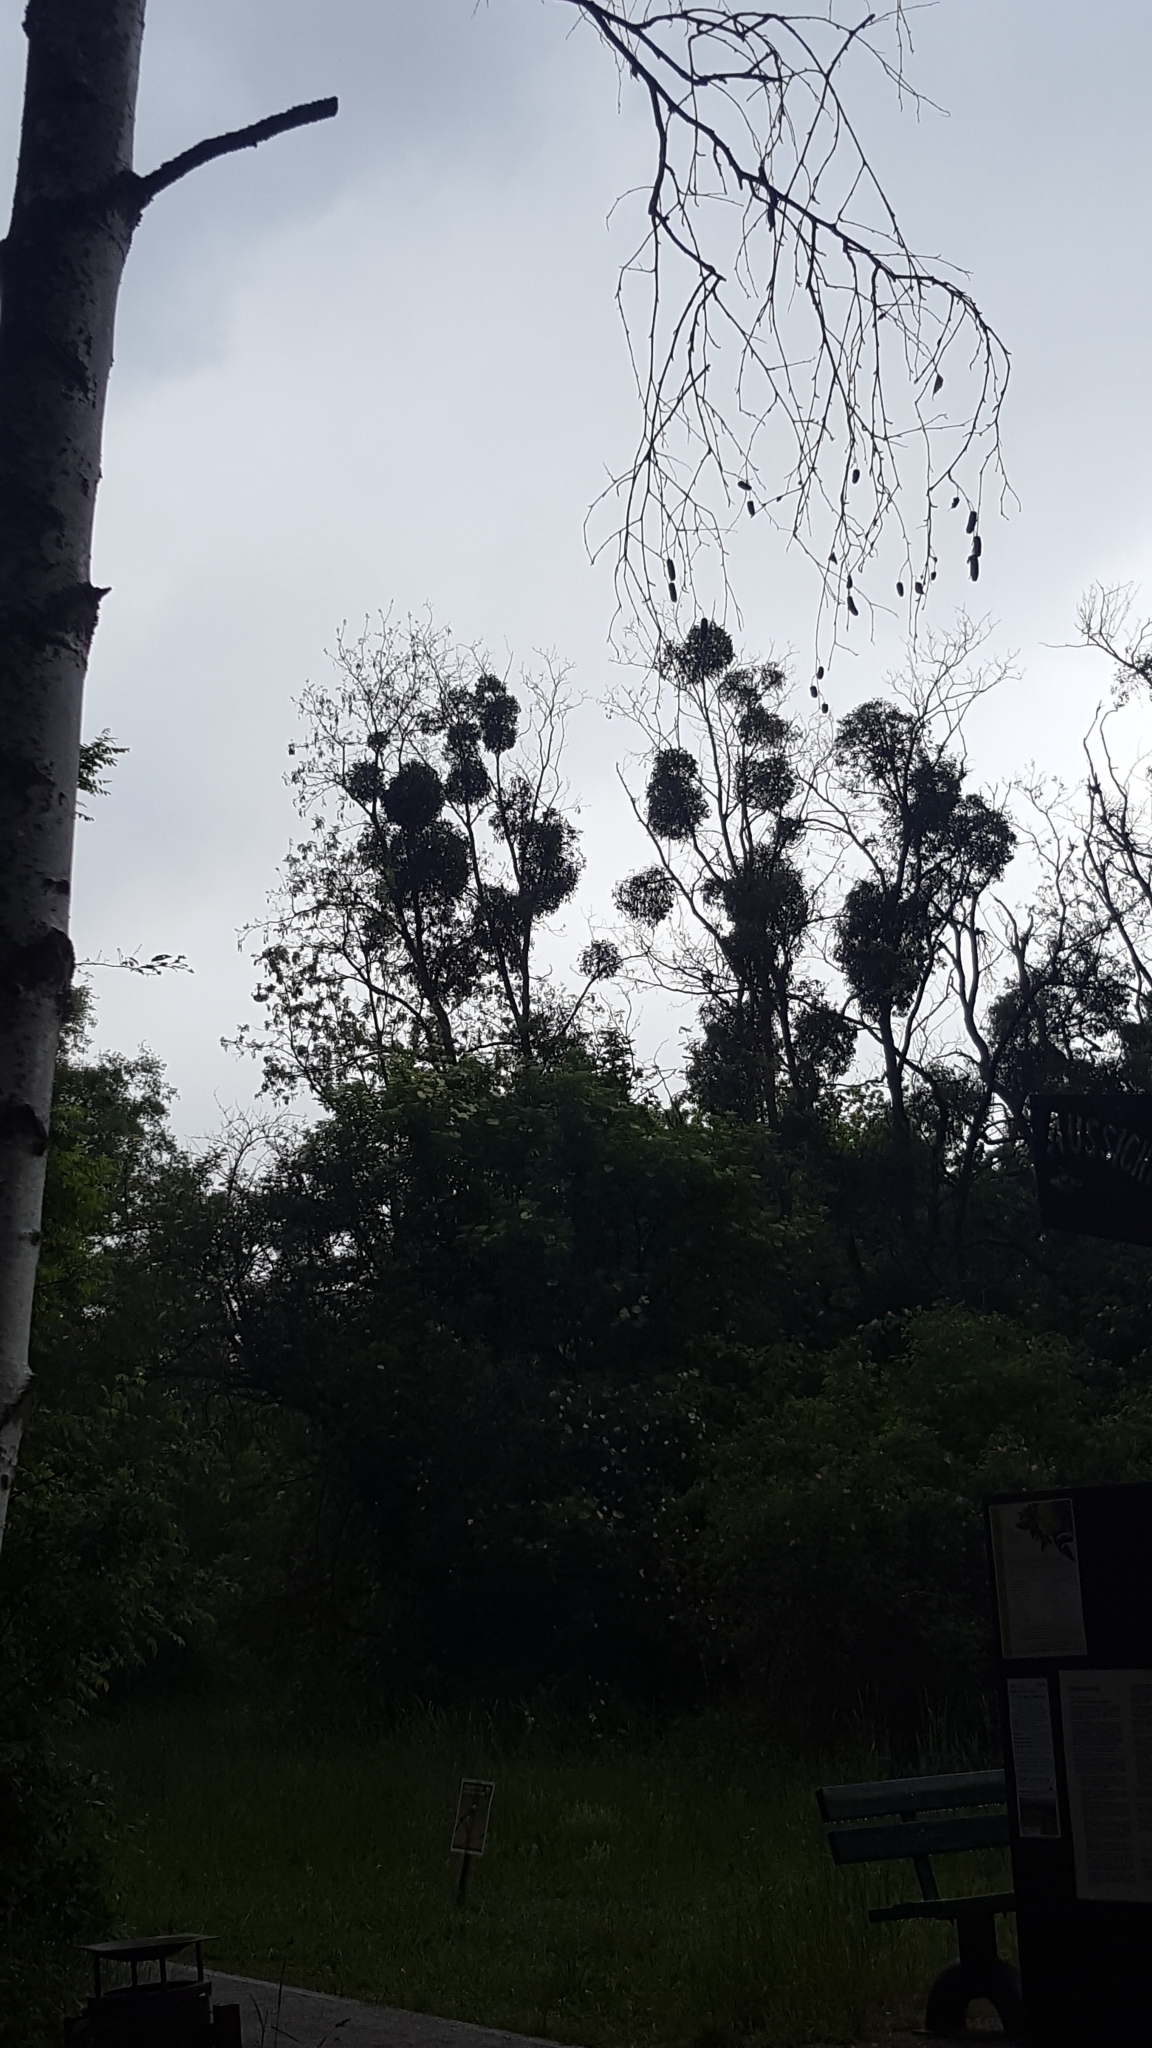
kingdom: Plantae
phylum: Tracheophyta
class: Magnoliopsida
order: Santalales
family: Viscaceae
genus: Viscum
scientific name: Viscum album
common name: Mistletoe
